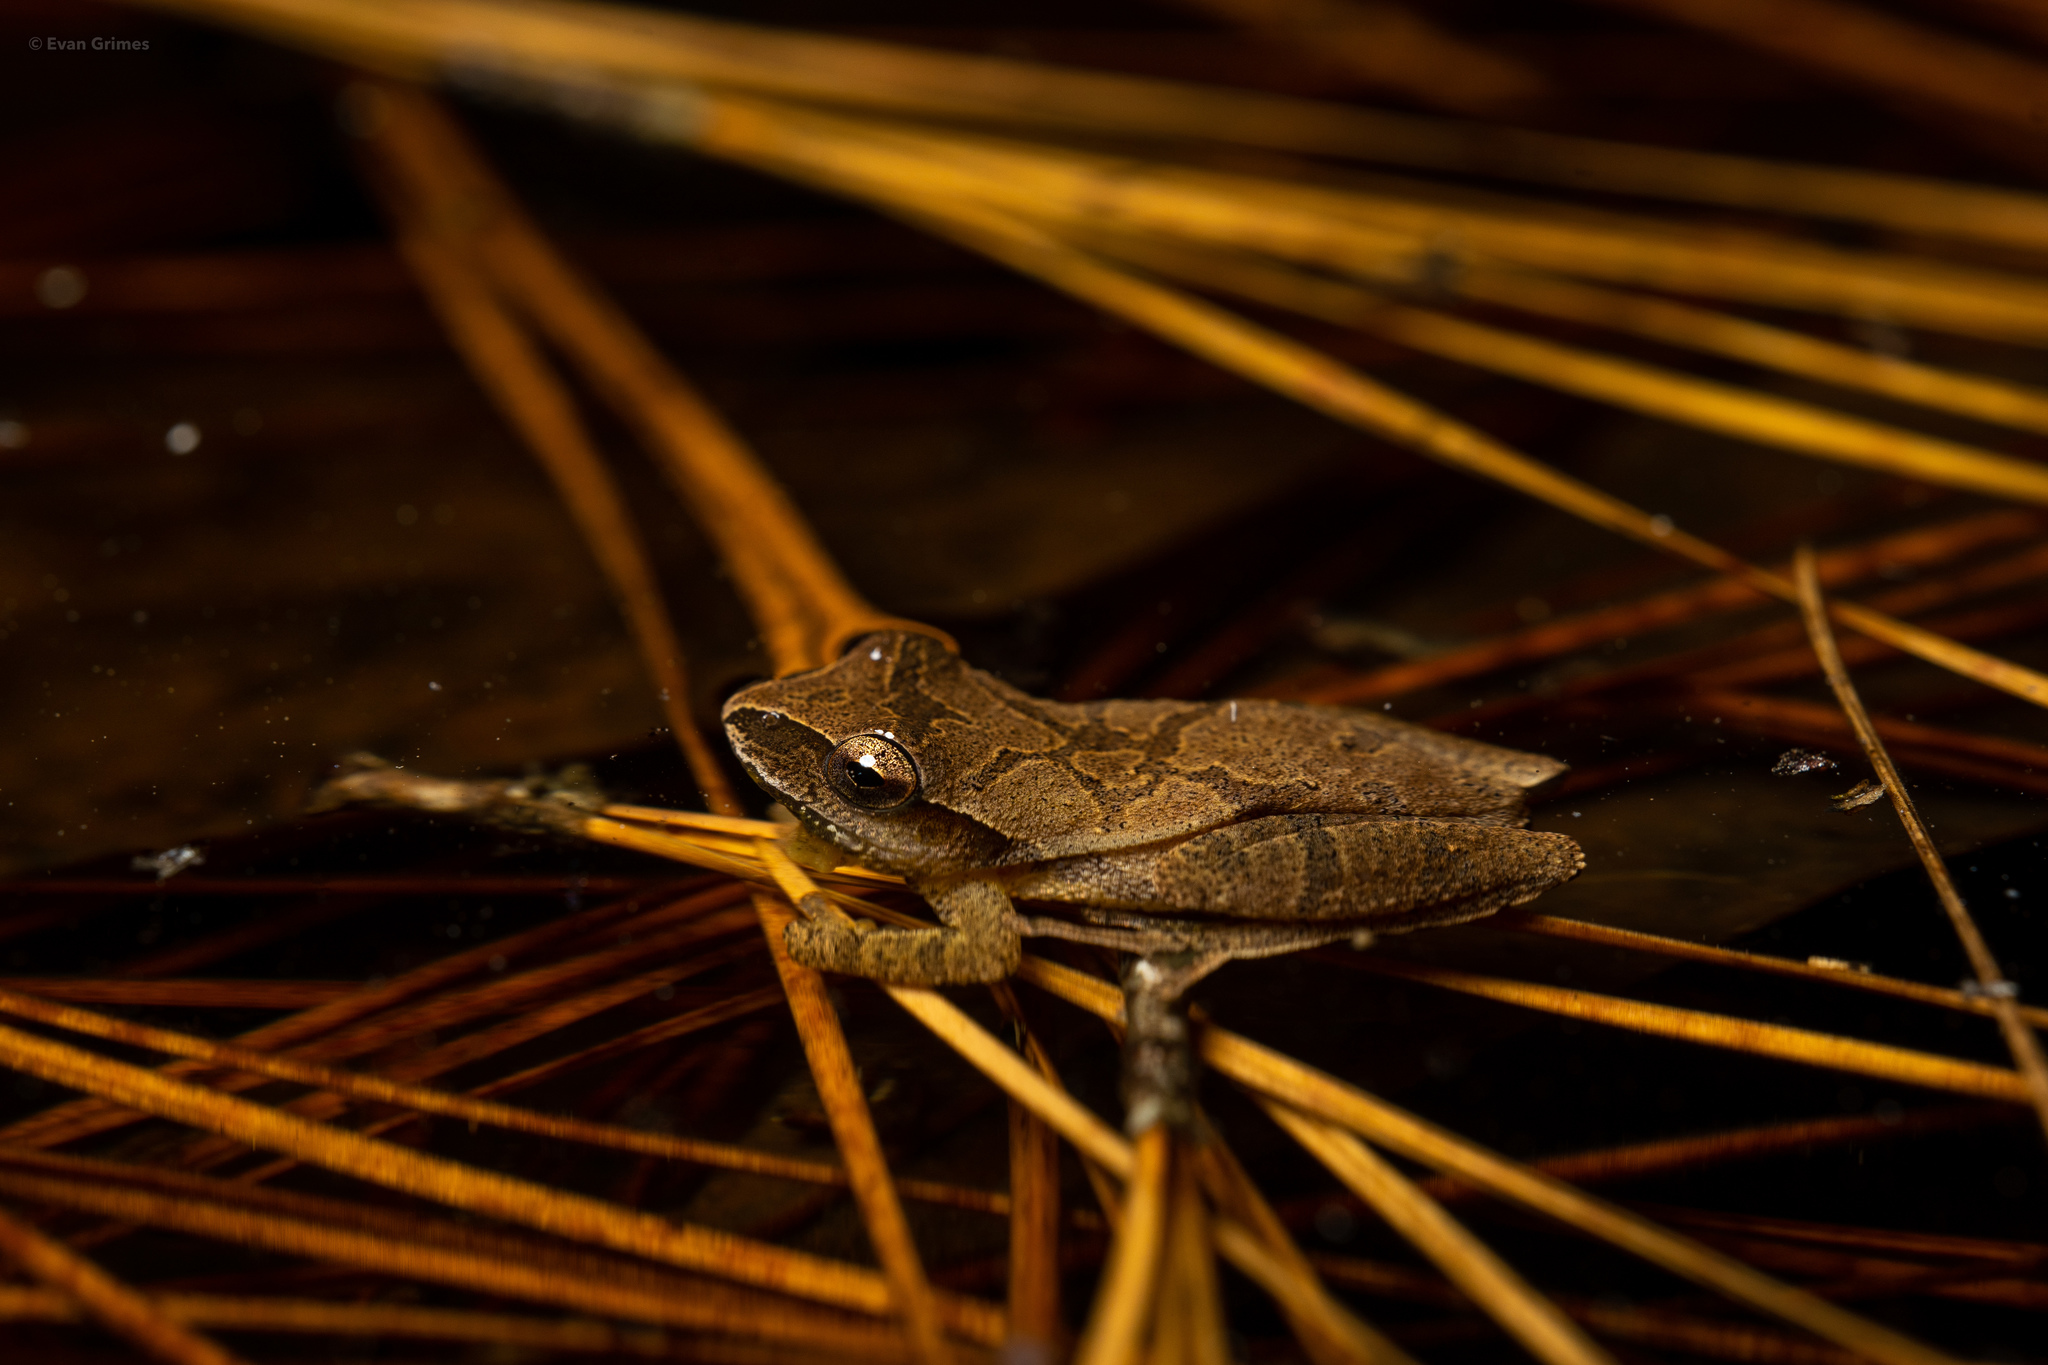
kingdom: Animalia
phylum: Chordata
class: Amphibia
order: Anura
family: Hylidae
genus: Pseudacris
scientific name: Pseudacris crucifer
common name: Spring peeper
